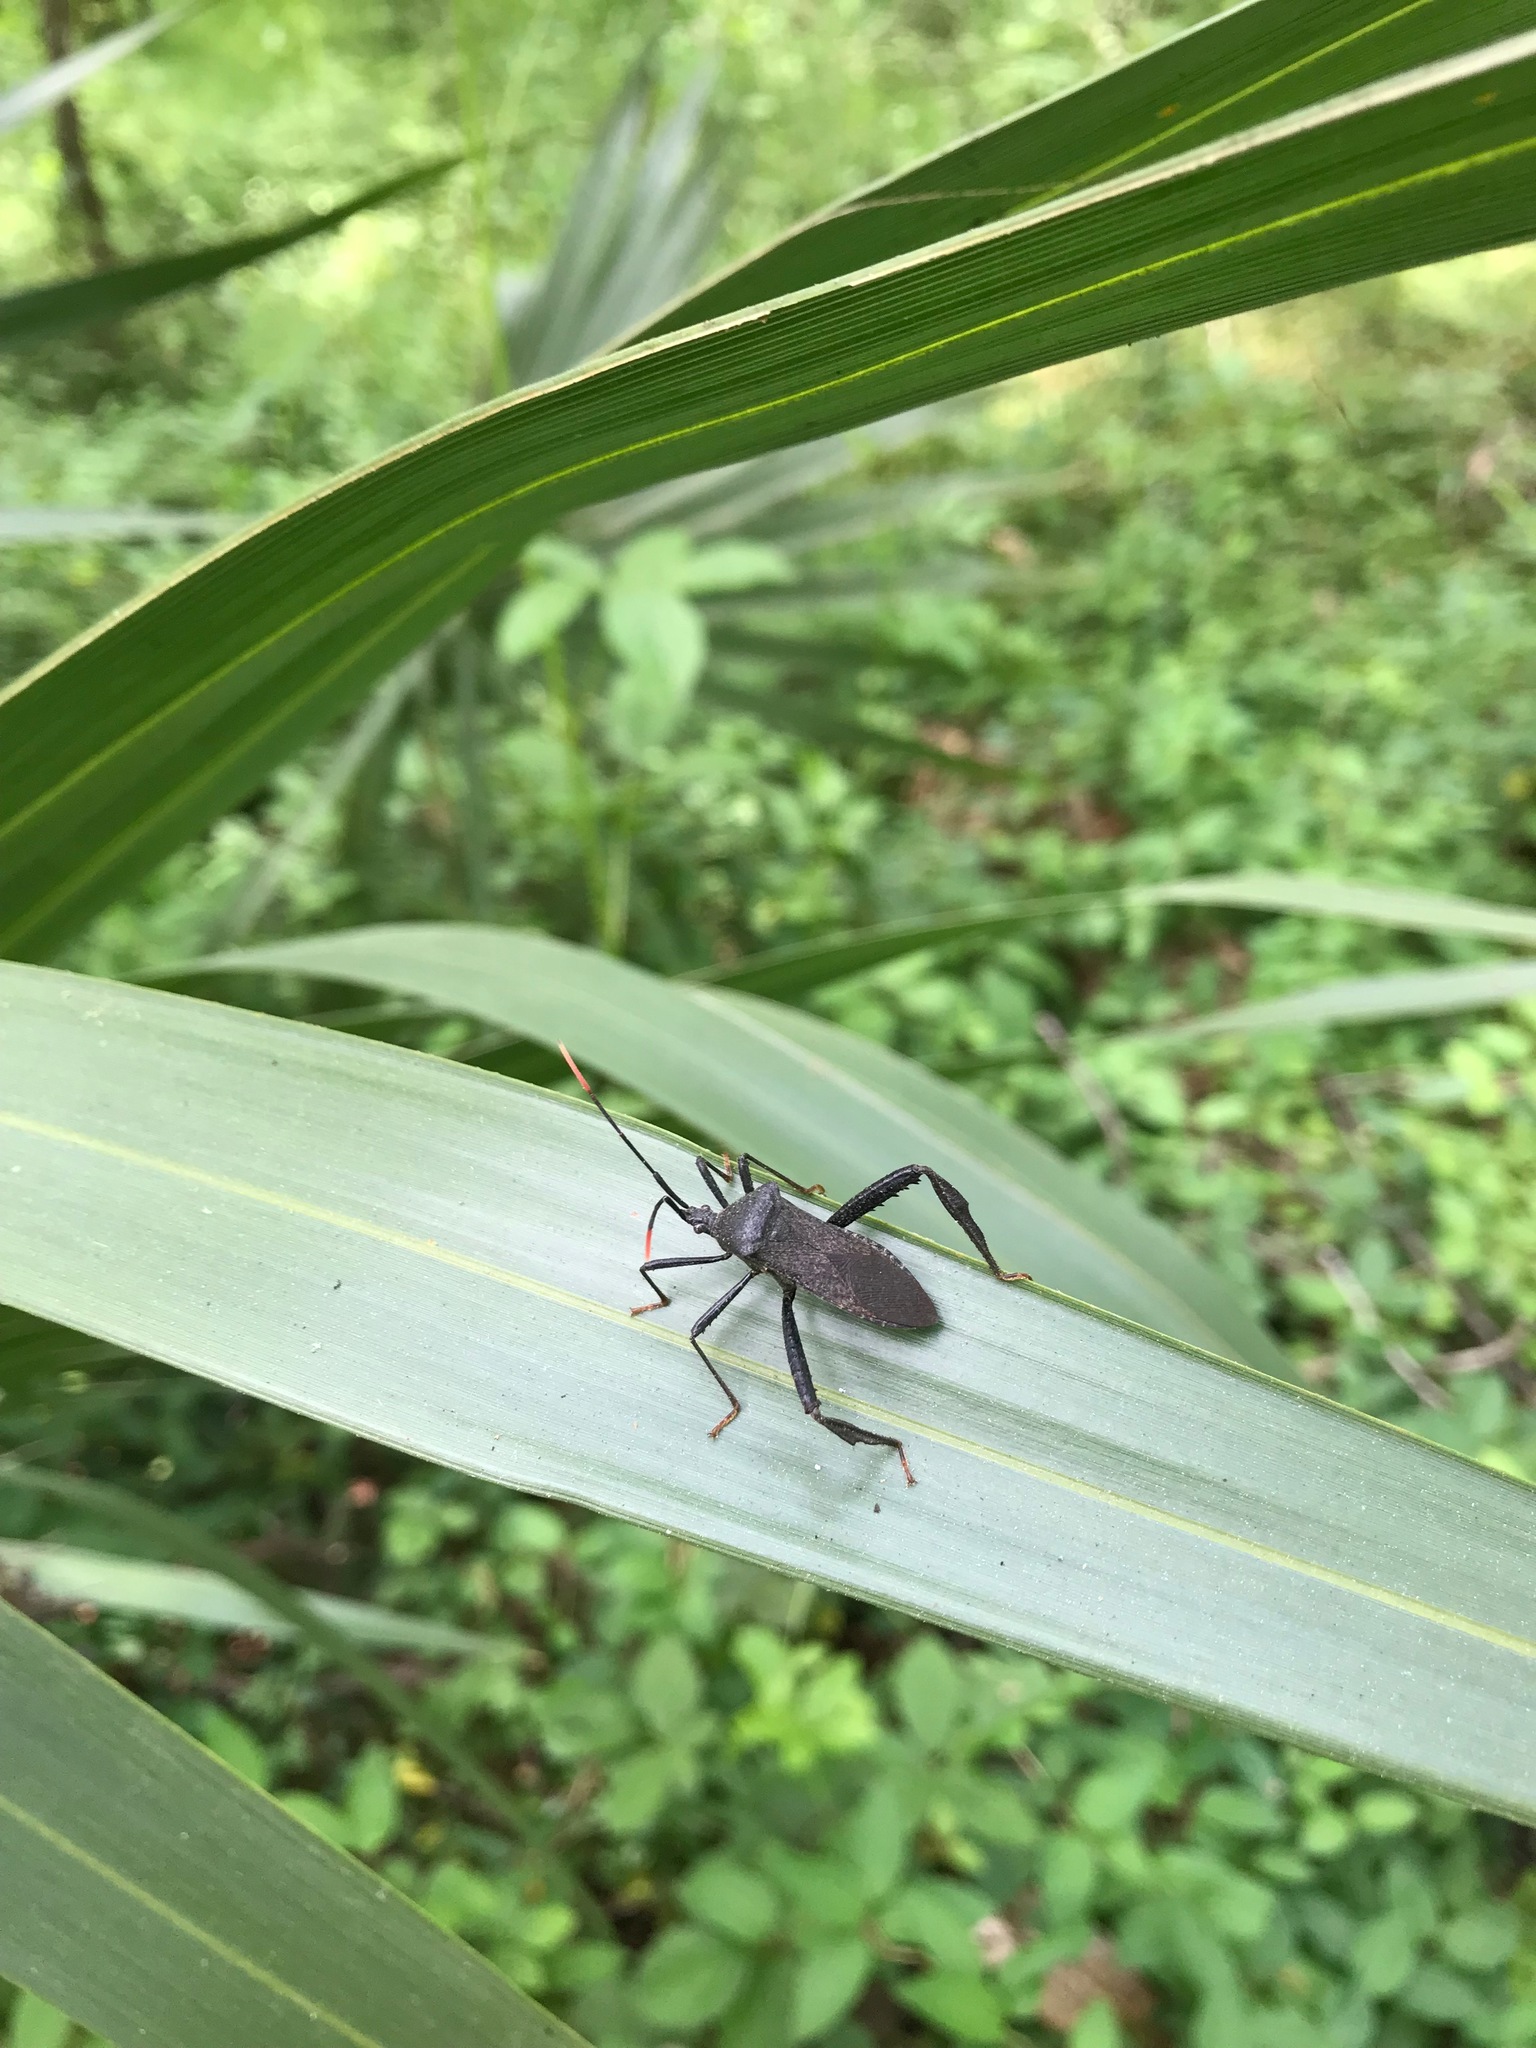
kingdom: Animalia
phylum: Arthropoda
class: Insecta
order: Hemiptera
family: Coreidae
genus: Acanthocephala
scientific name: Acanthocephala terminalis
